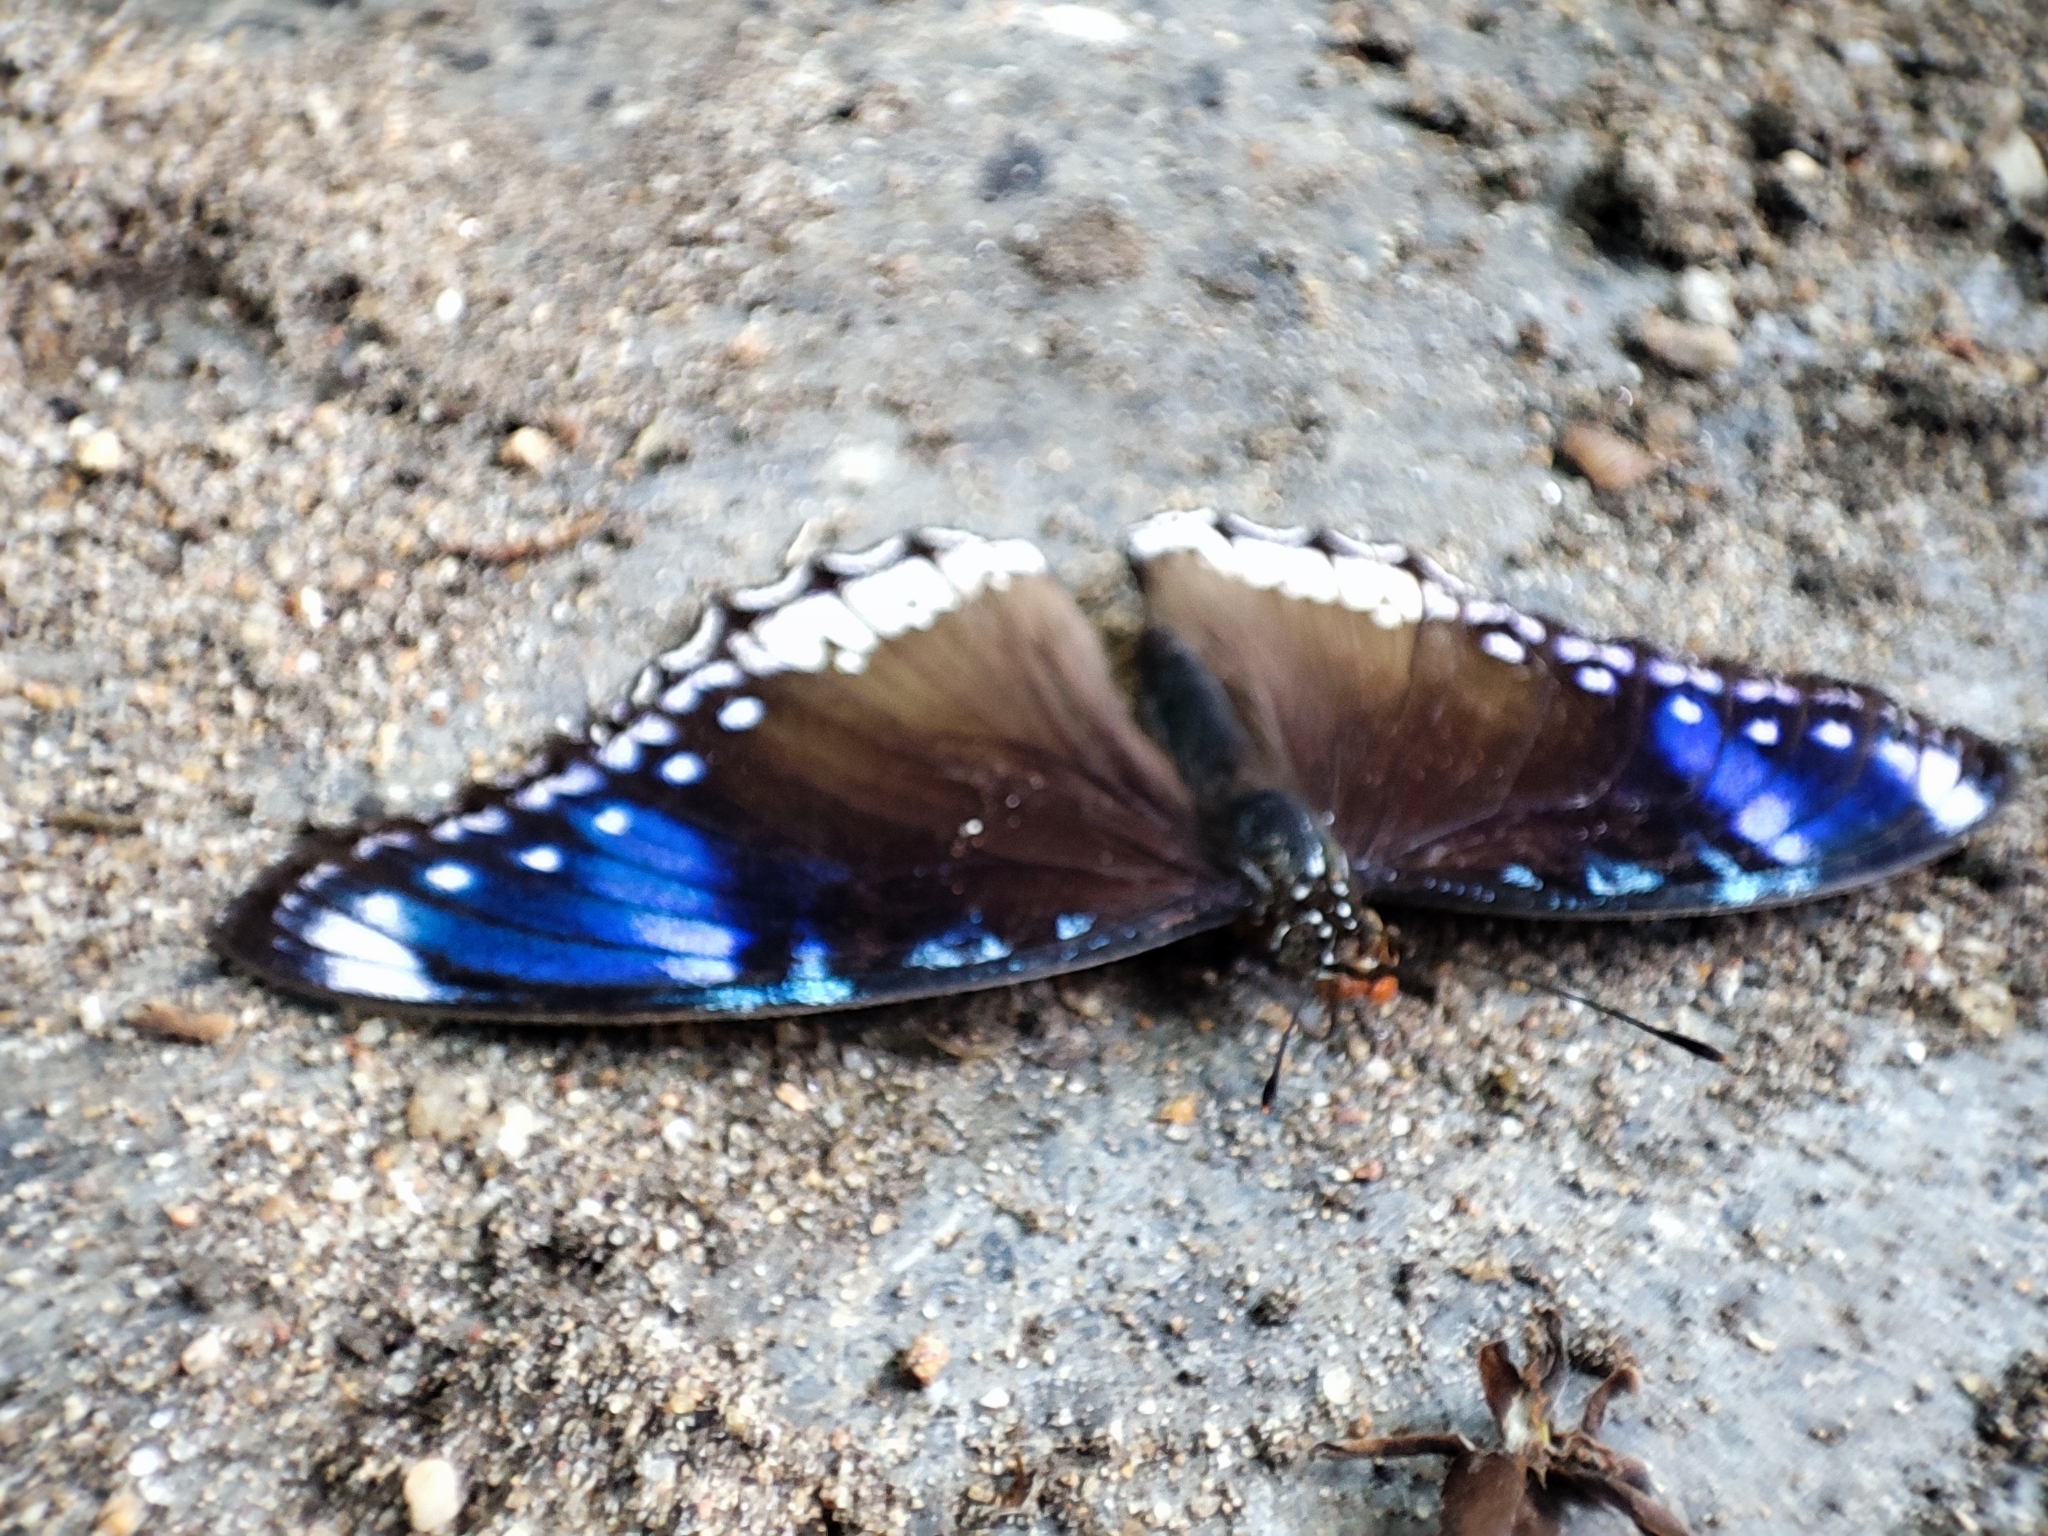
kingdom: Animalia
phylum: Arthropoda
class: Insecta
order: Lepidoptera
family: Nymphalidae
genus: Hypolimnas
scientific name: Hypolimnas bolina
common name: Great eggfly
